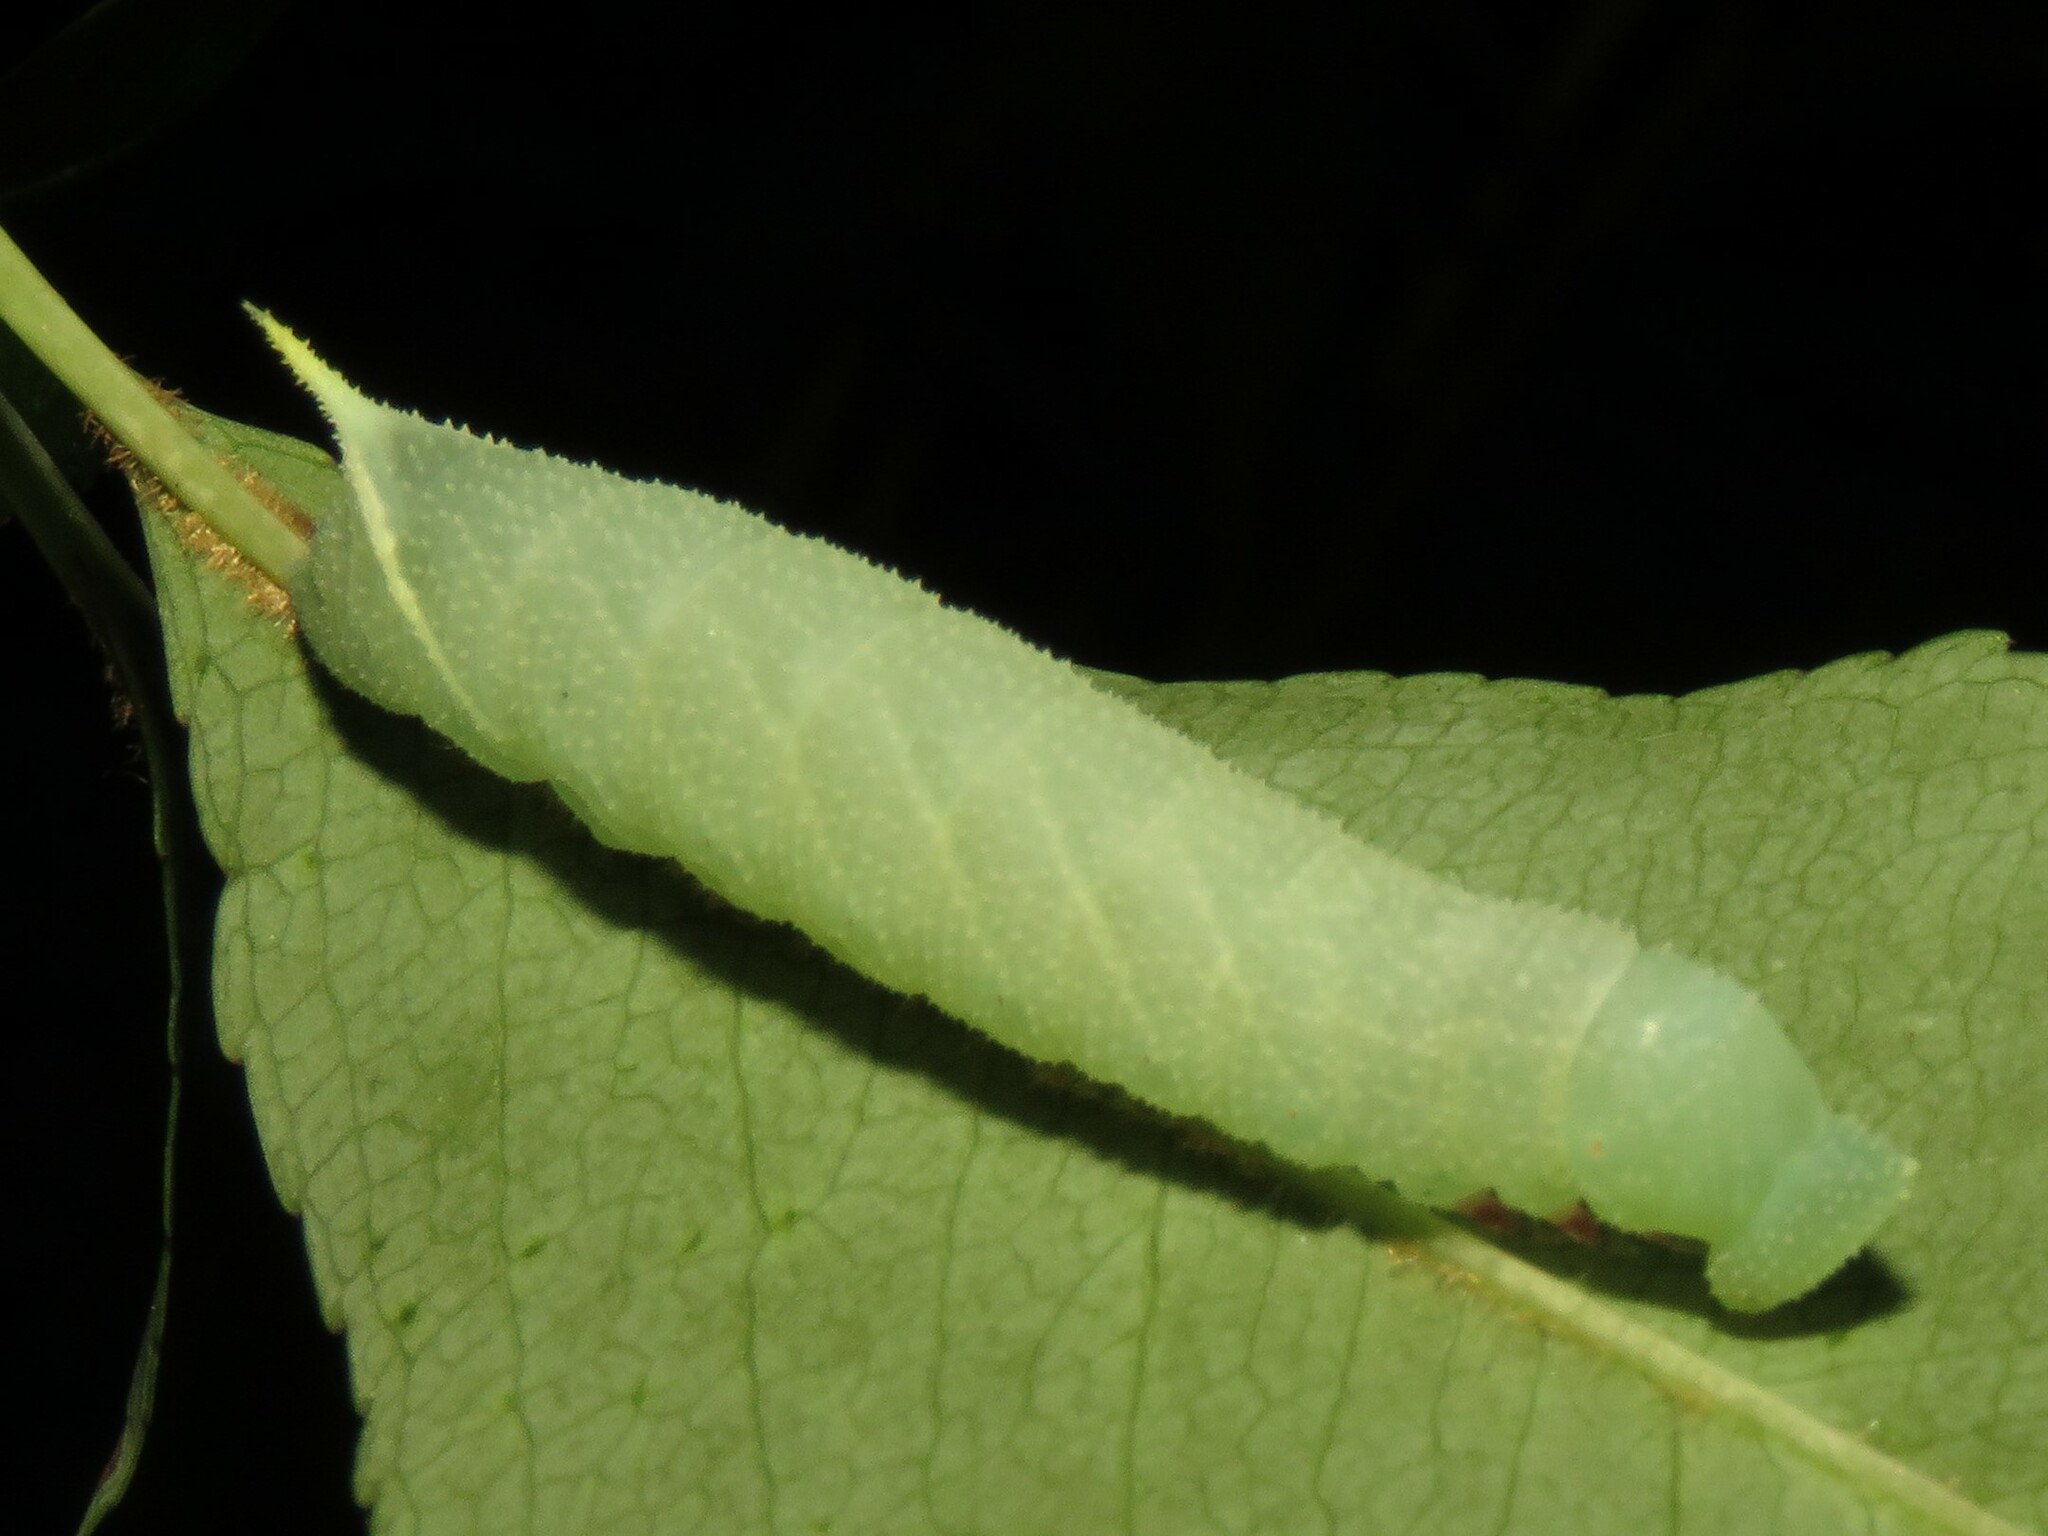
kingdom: Animalia
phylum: Arthropoda
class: Insecta
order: Lepidoptera
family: Sphingidae
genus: Paonias
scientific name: Paonias myops
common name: Small-eyed sphinx
